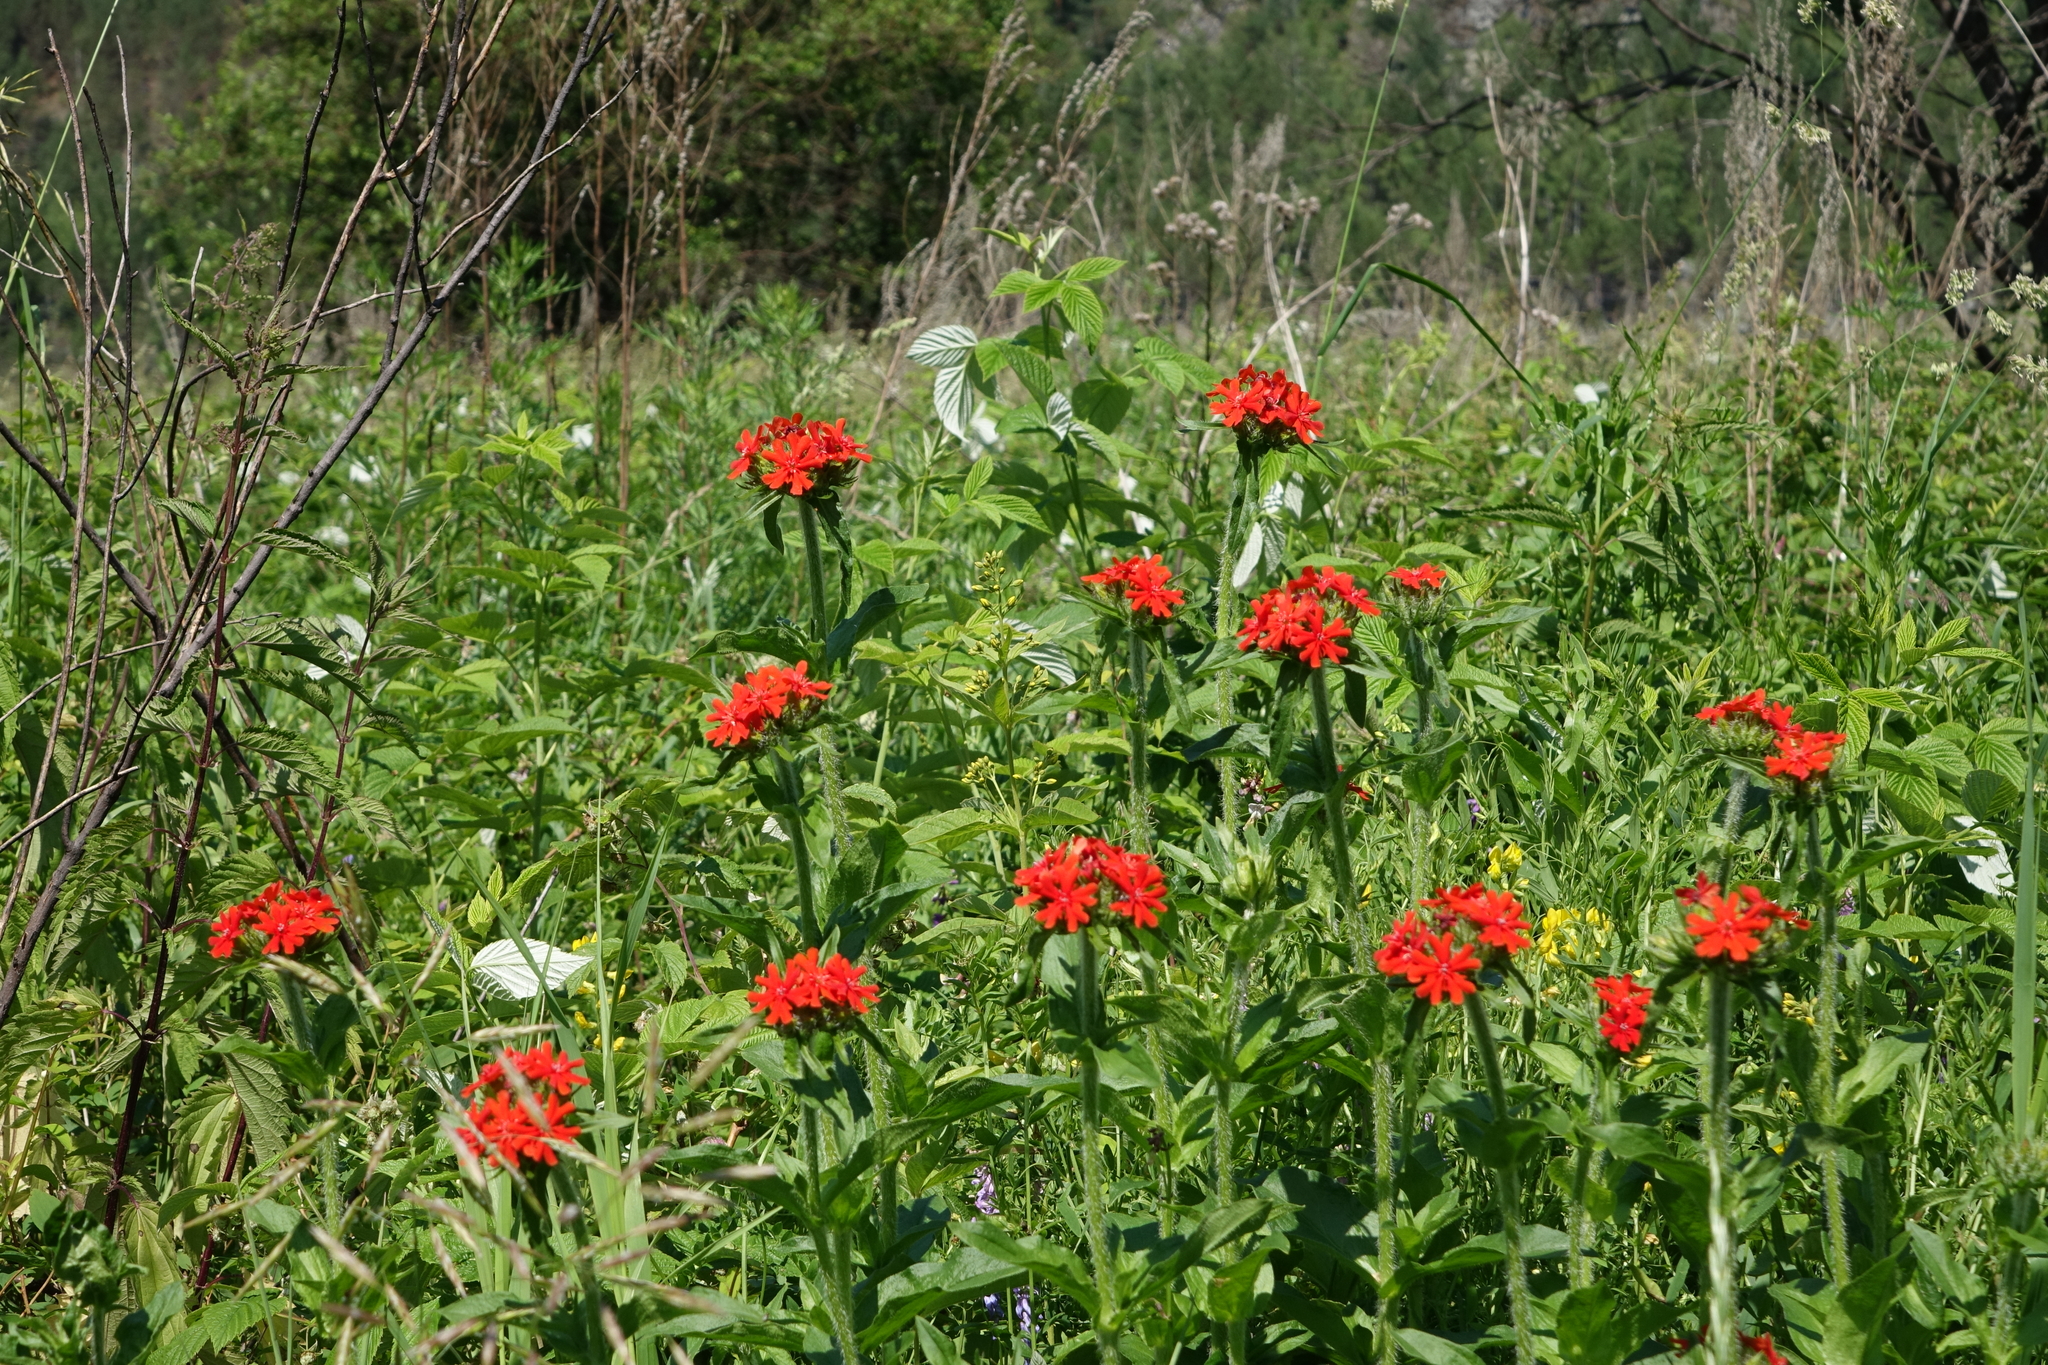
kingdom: Plantae
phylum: Tracheophyta
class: Magnoliopsida
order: Caryophyllales
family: Caryophyllaceae
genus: Silene
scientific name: Silene chalcedonica
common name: Maltese-cross
